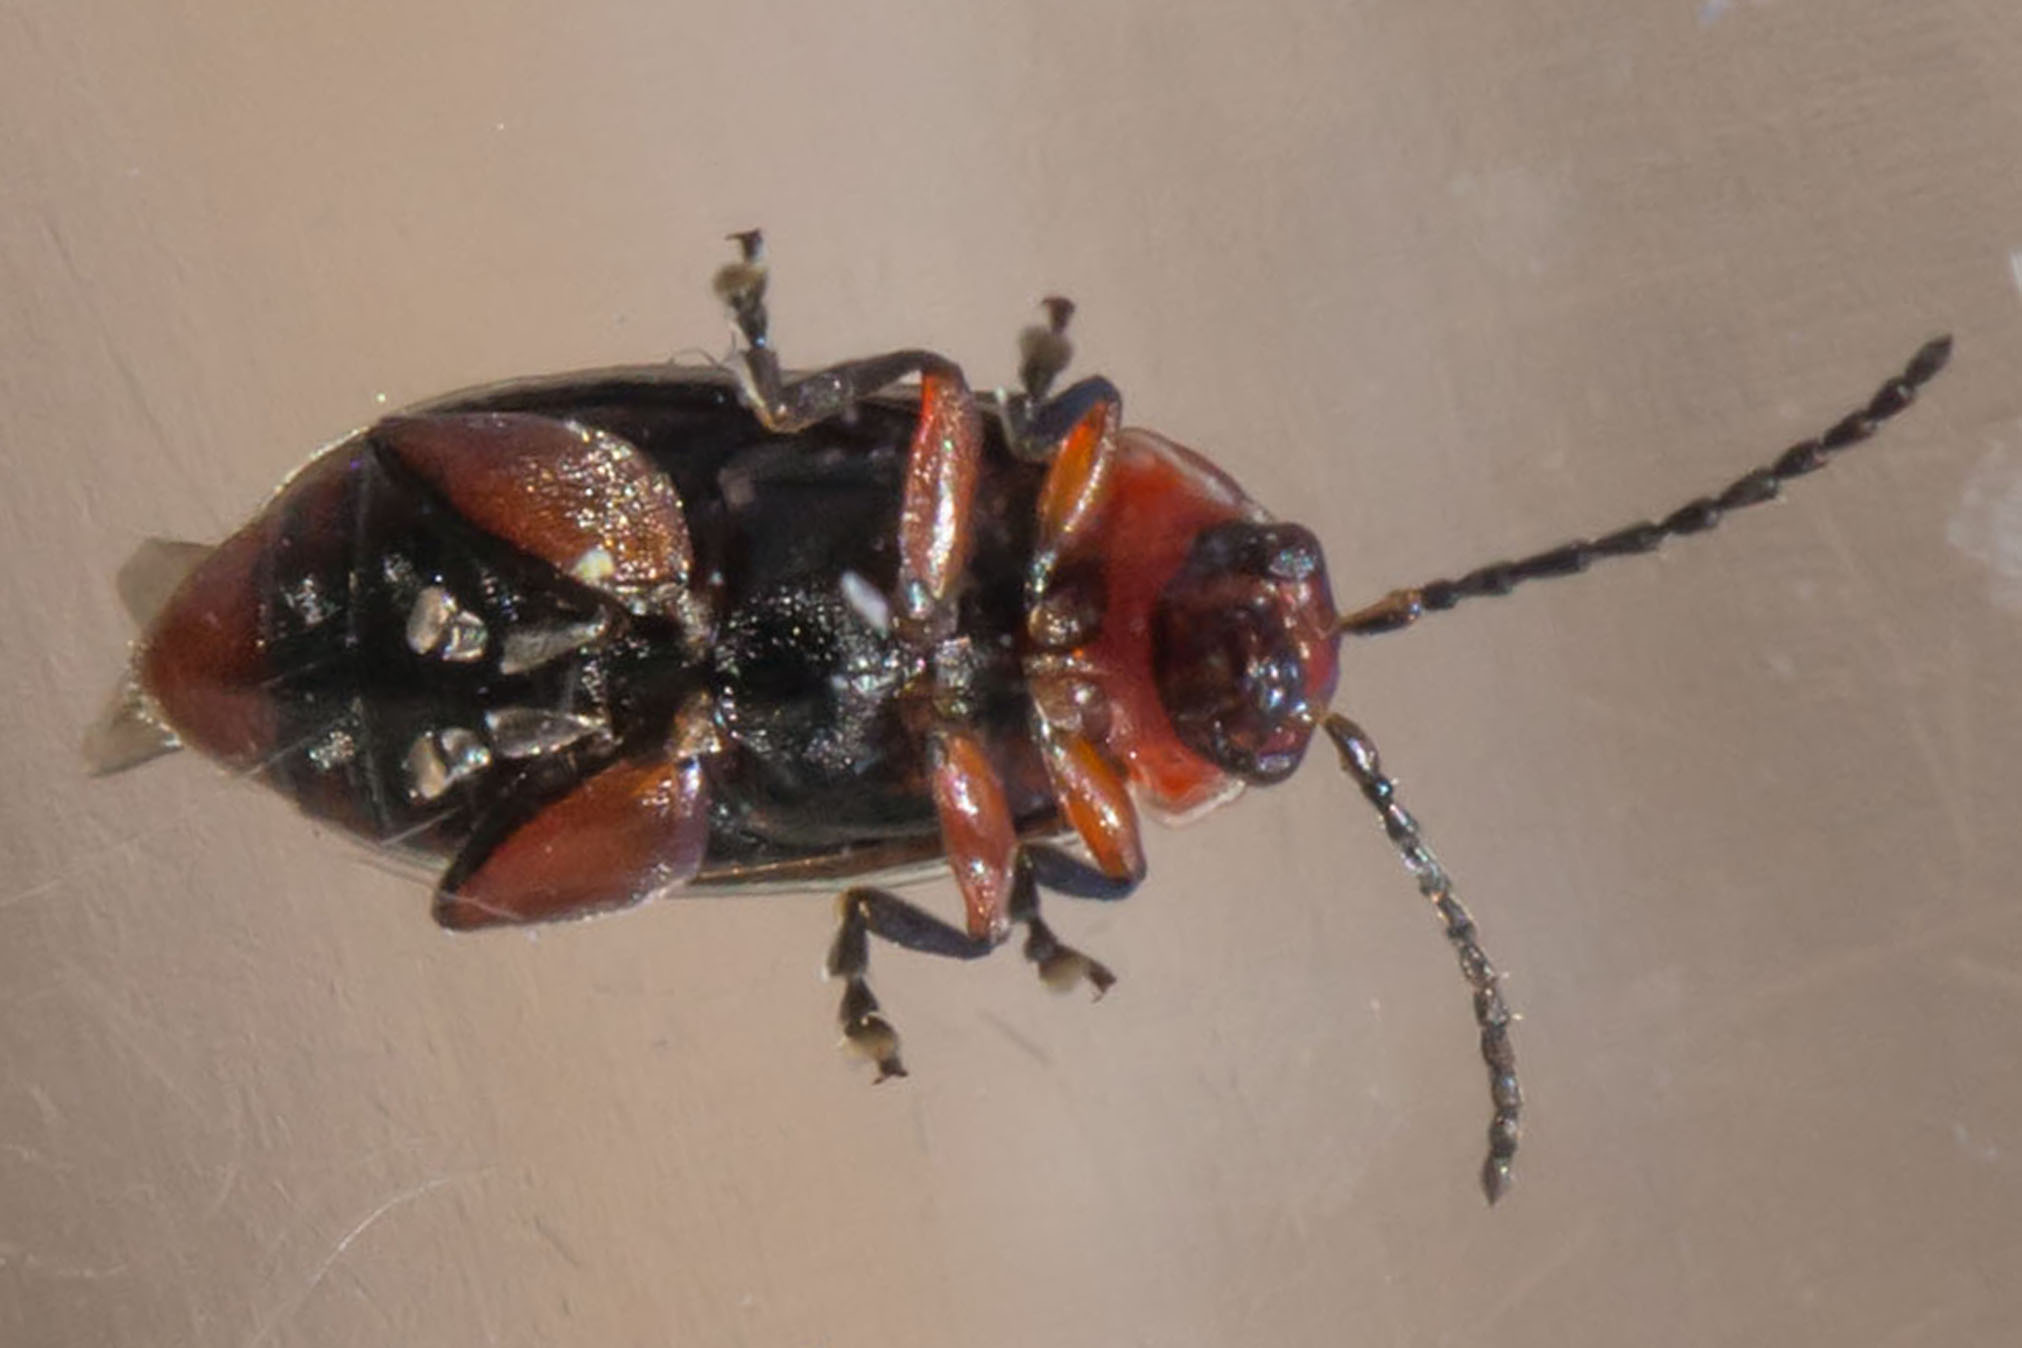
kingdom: Animalia
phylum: Arthropoda
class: Insecta
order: Coleoptera
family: Chrysomelidae
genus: Disonycha
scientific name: Disonycha procera
